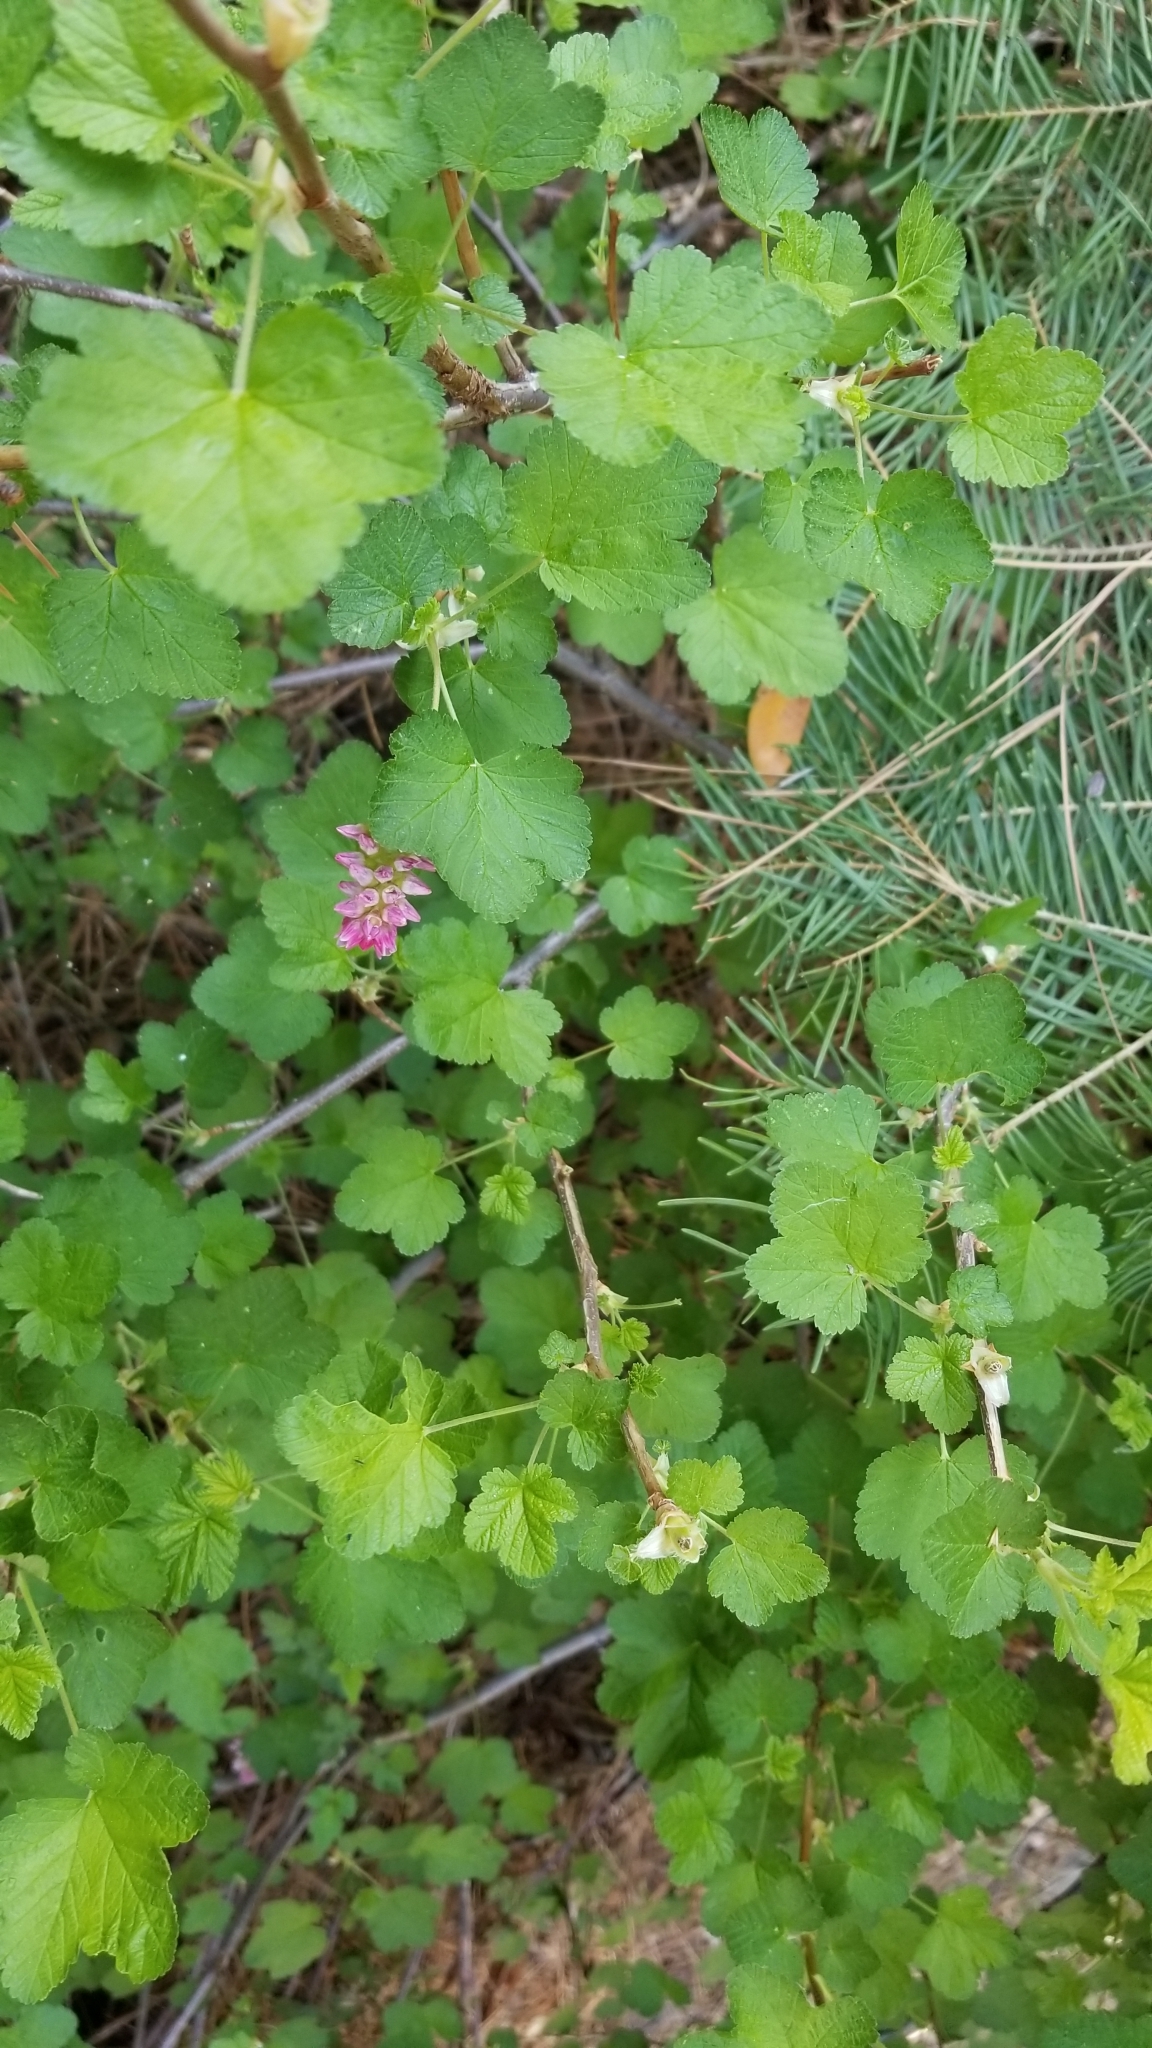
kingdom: Plantae
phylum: Tracheophyta
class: Magnoliopsida
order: Saxifragales
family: Grossulariaceae
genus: Ribes
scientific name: Ribes nevadense
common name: Mountain pink currant
